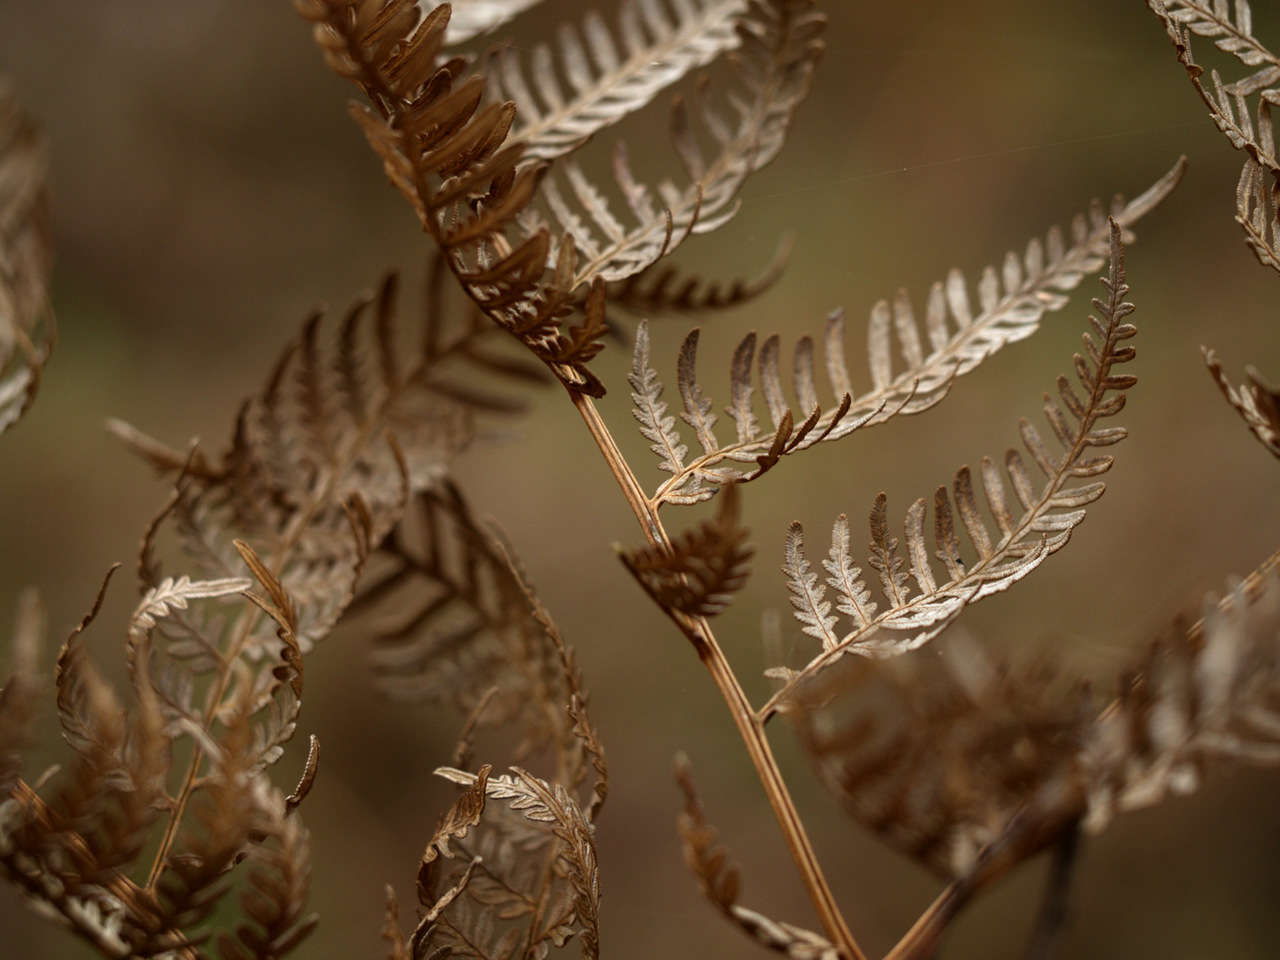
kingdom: Plantae
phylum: Tracheophyta
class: Polypodiopsida
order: Polypodiales
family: Dennstaedtiaceae
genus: Pteridium
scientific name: Pteridium esculentum
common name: Bracken fern
